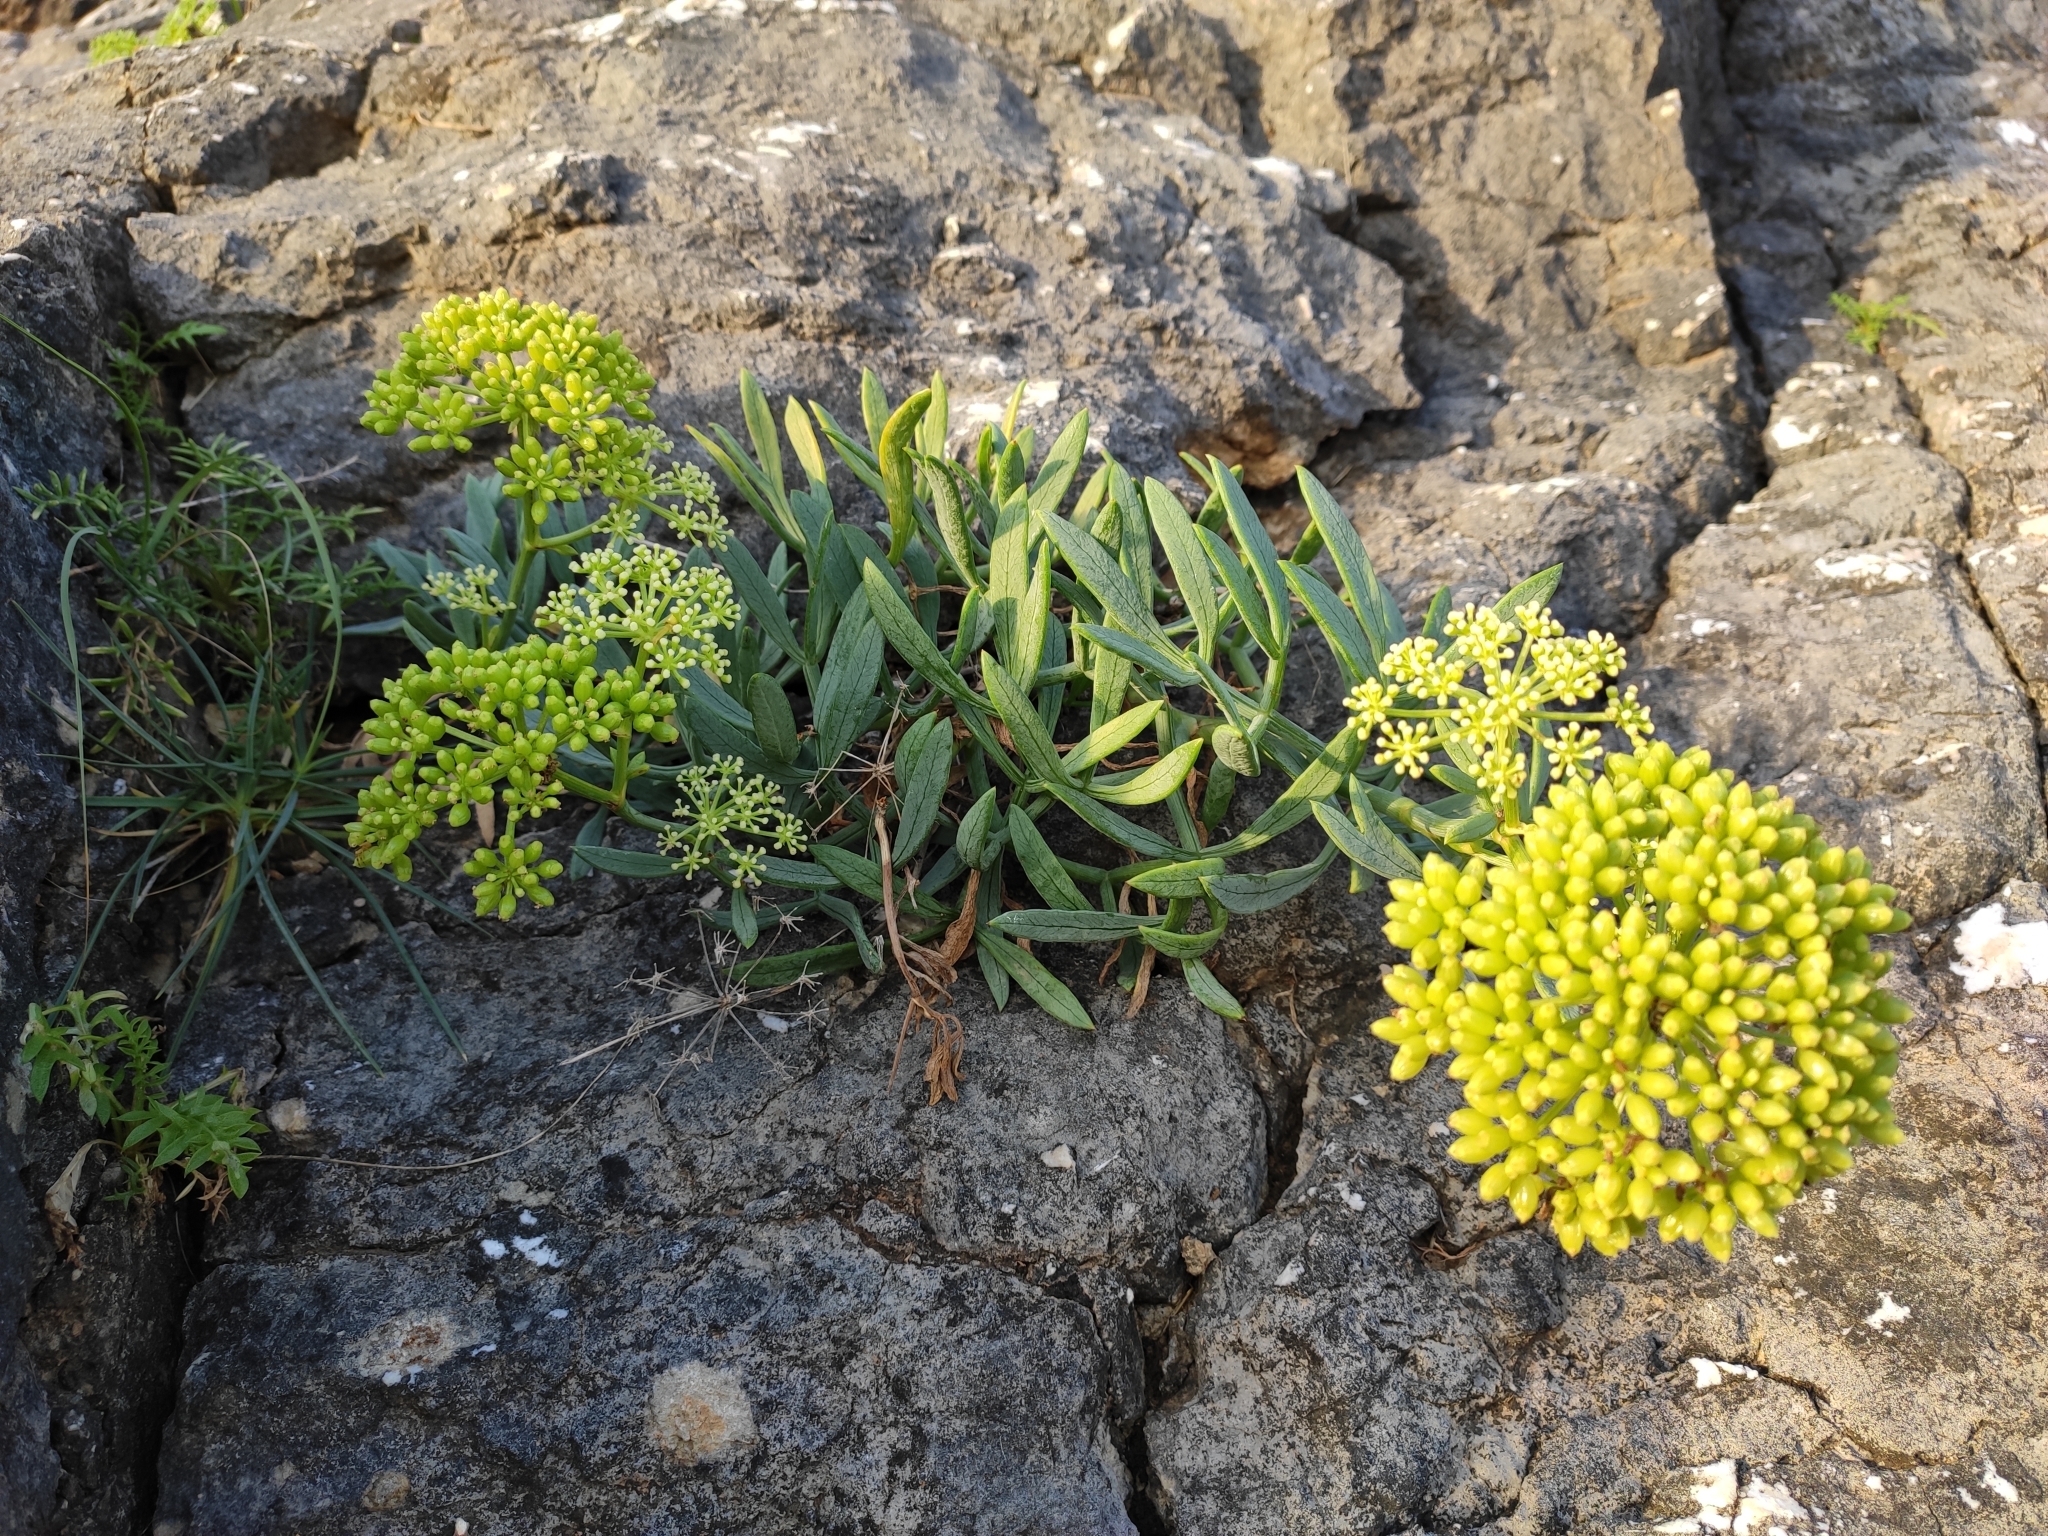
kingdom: Plantae
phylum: Tracheophyta
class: Magnoliopsida
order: Apiales
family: Apiaceae
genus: Crithmum
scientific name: Crithmum maritimum
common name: Rock samphire
